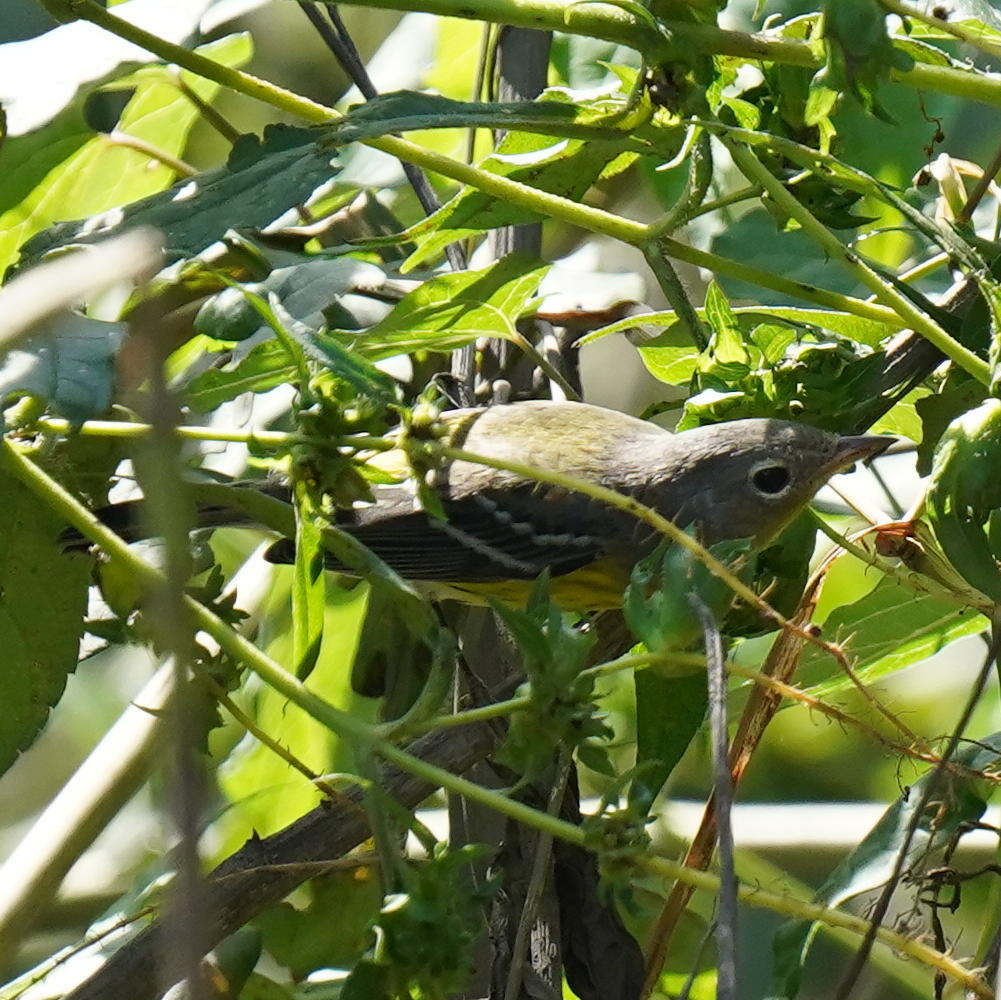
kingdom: Animalia
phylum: Chordata
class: Aves
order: Passeriformes
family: Parulidae
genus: Setophaga
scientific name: Setophaga magnolia
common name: Magnolia warbler
